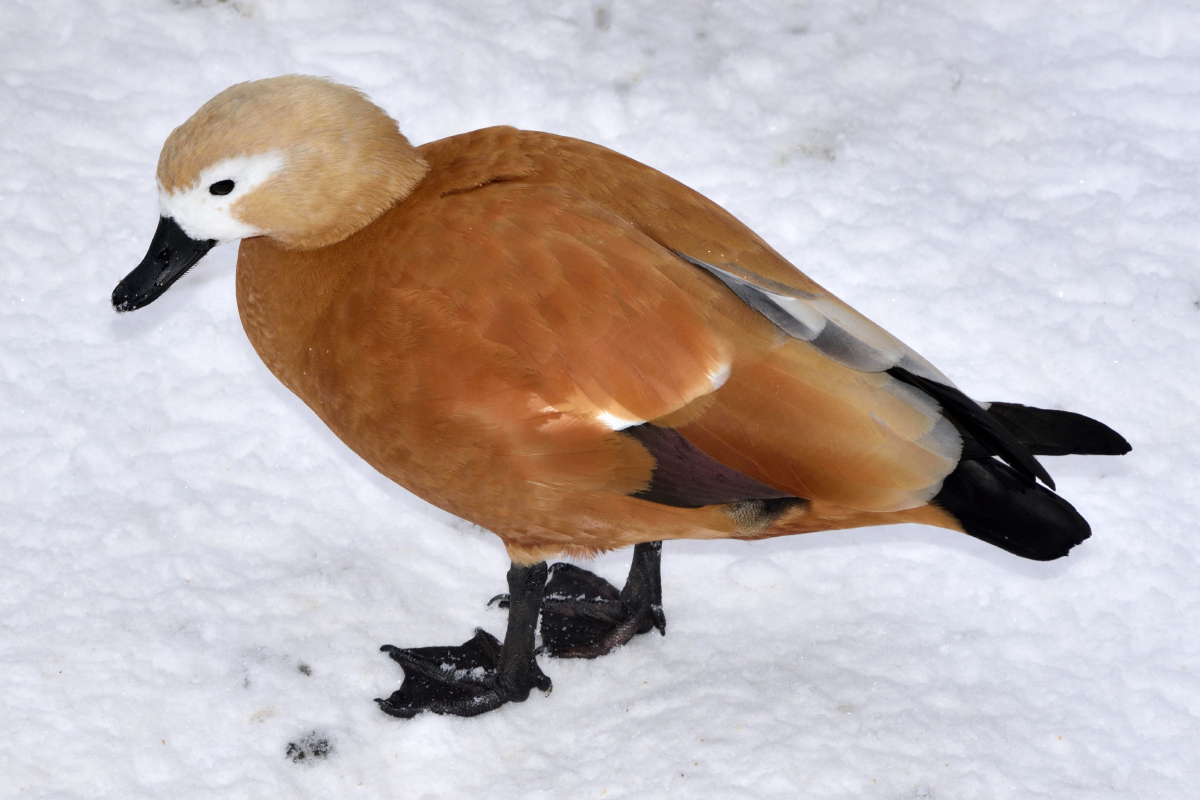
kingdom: Animalia
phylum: Chordata
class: Aves
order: Anseriformes
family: Anatidae
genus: Tadorna
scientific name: Tadorna ferruginea
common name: Ruddy shelduck
